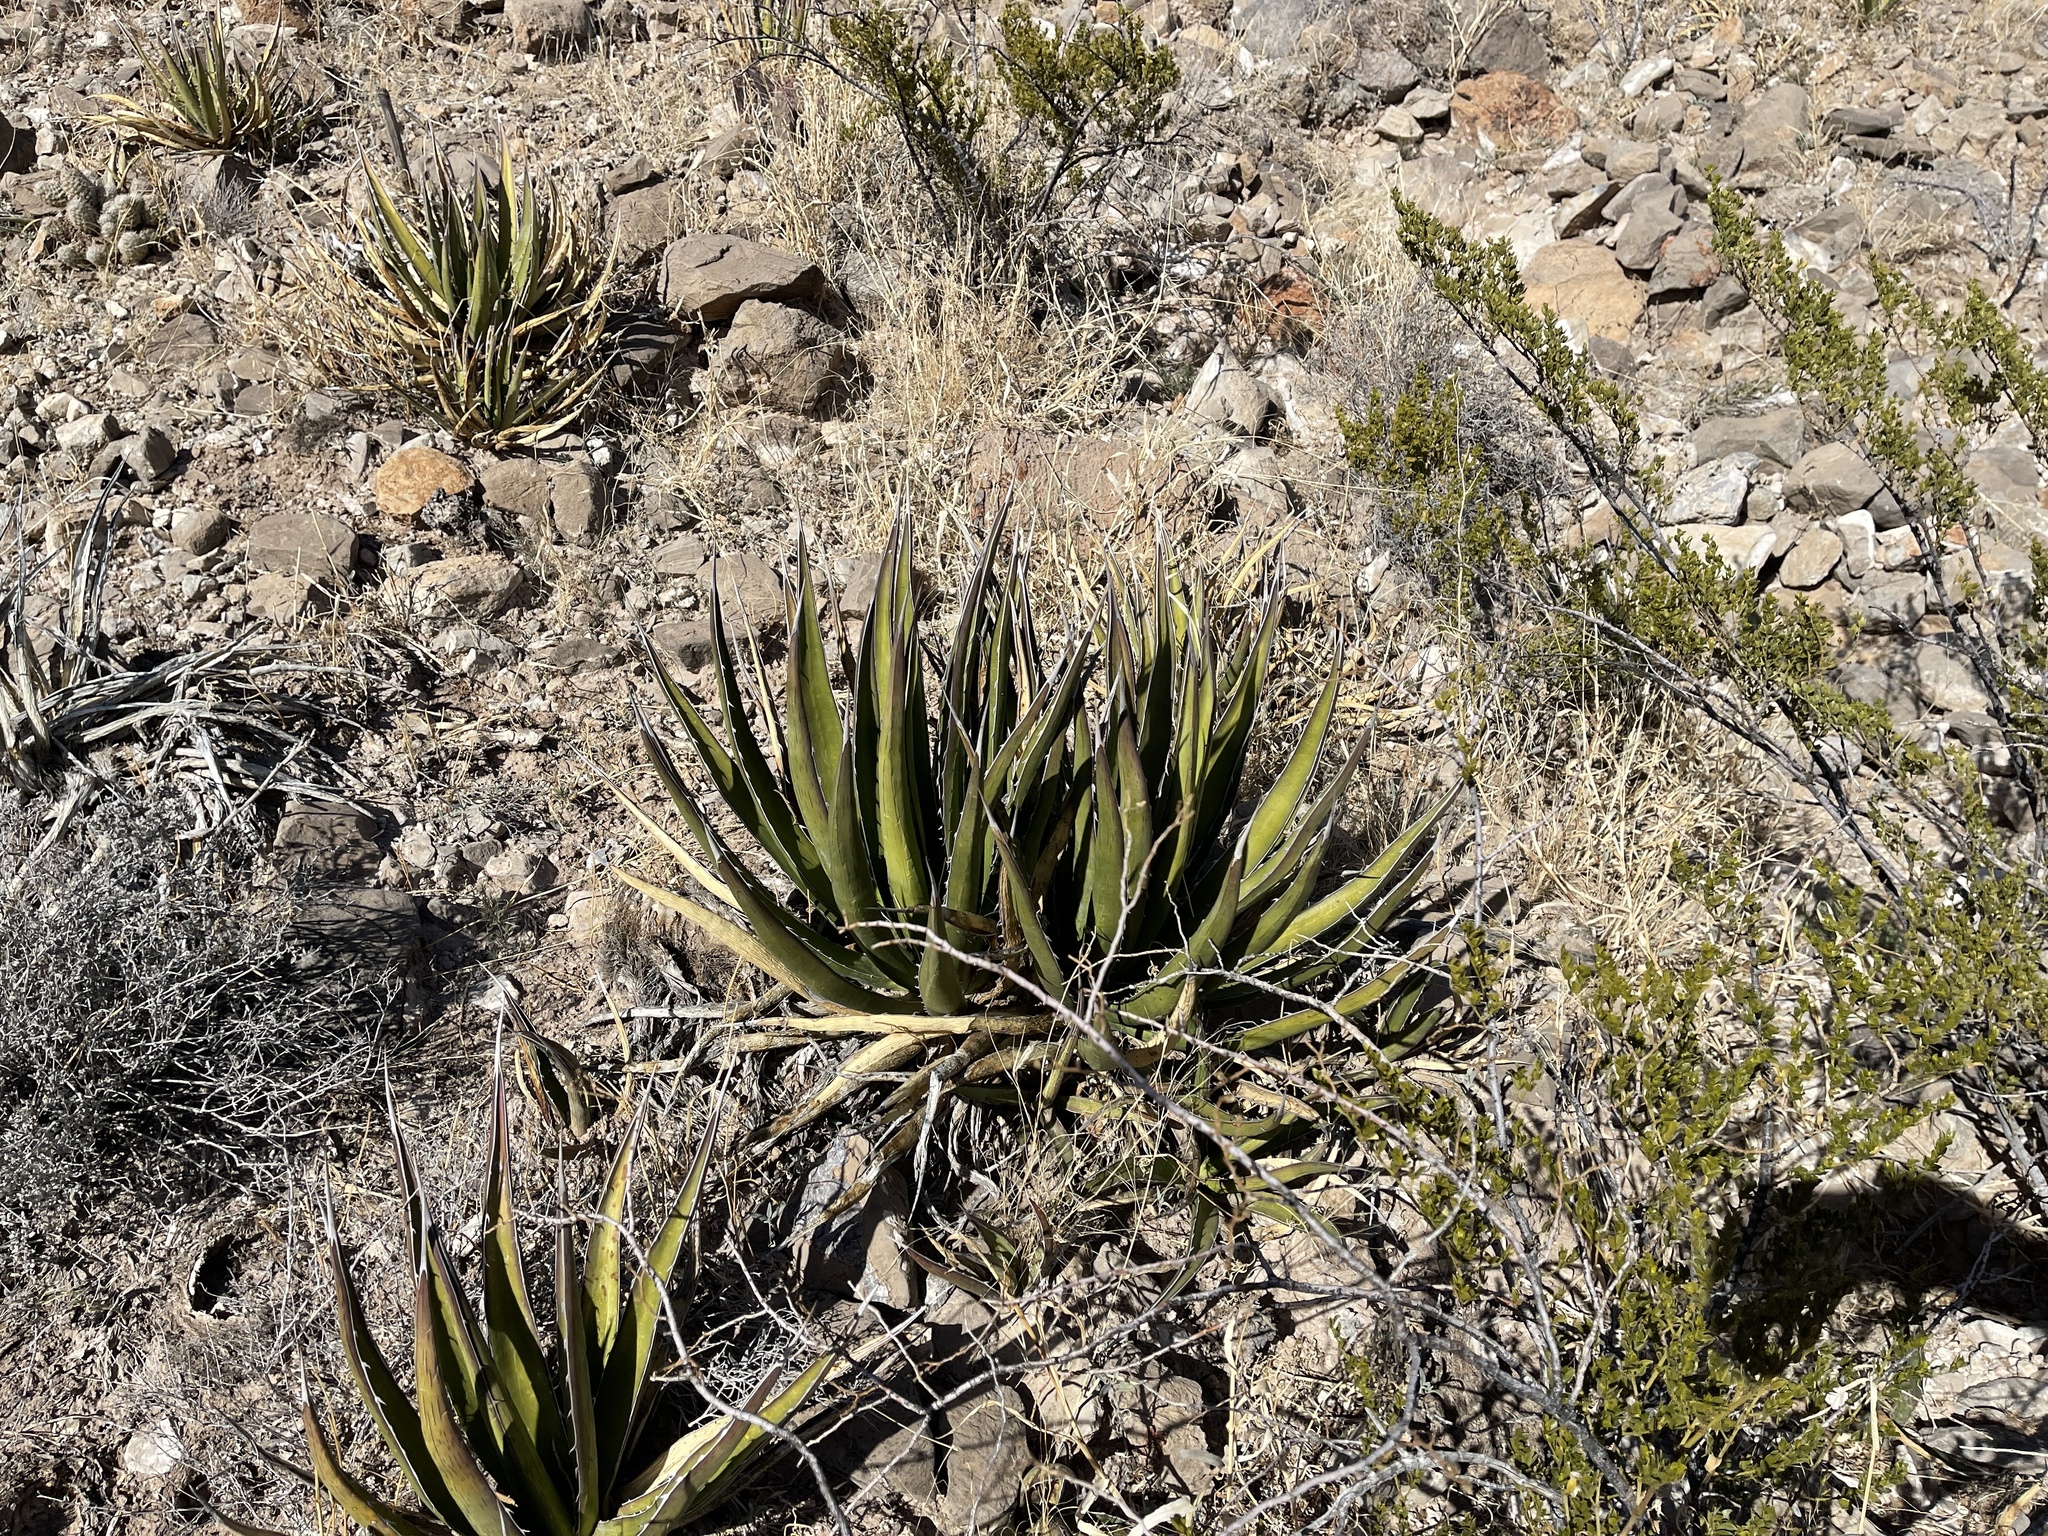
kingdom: Plantae
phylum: Tracheophyta
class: Liliopsida
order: Asparagales
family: Asparagaceae
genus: Agave
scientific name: Agave lechuguilla
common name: Lecheguilla agave
